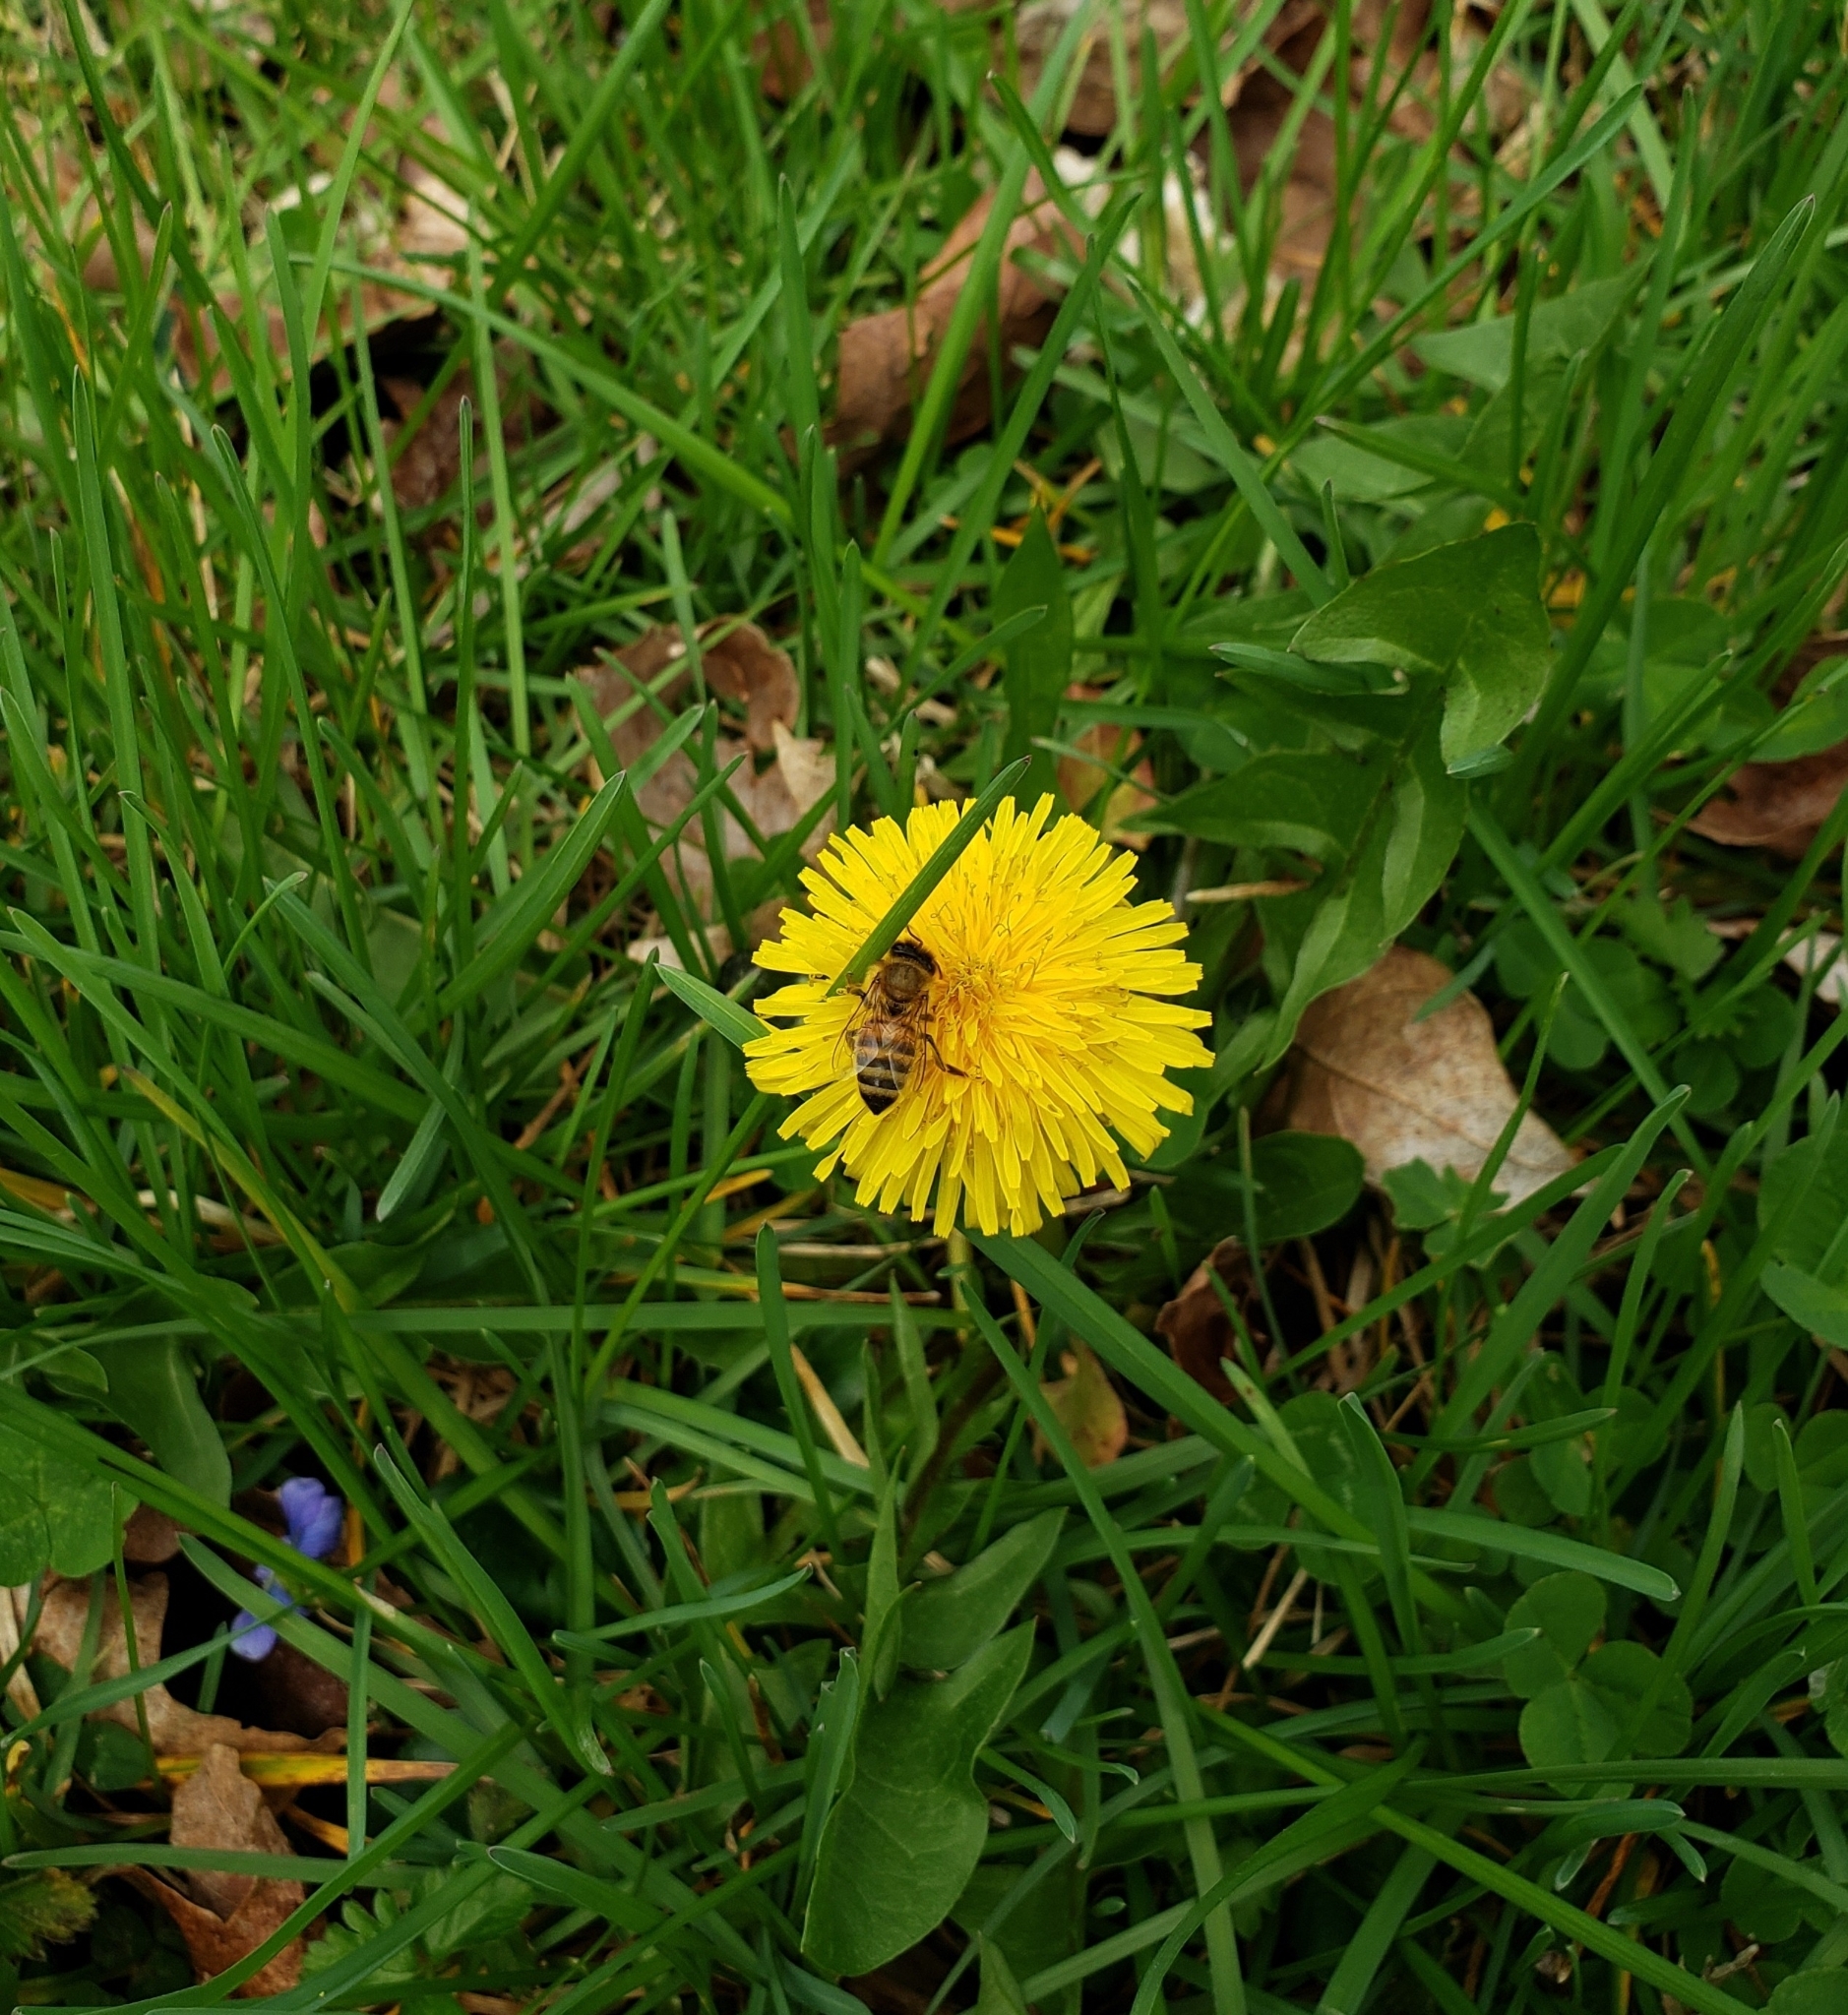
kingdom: Animalia
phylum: Arthropoda
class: Insecta
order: Hymenoptera
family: Apidae
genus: Apis
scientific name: Apis mellifera
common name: Honey bee
